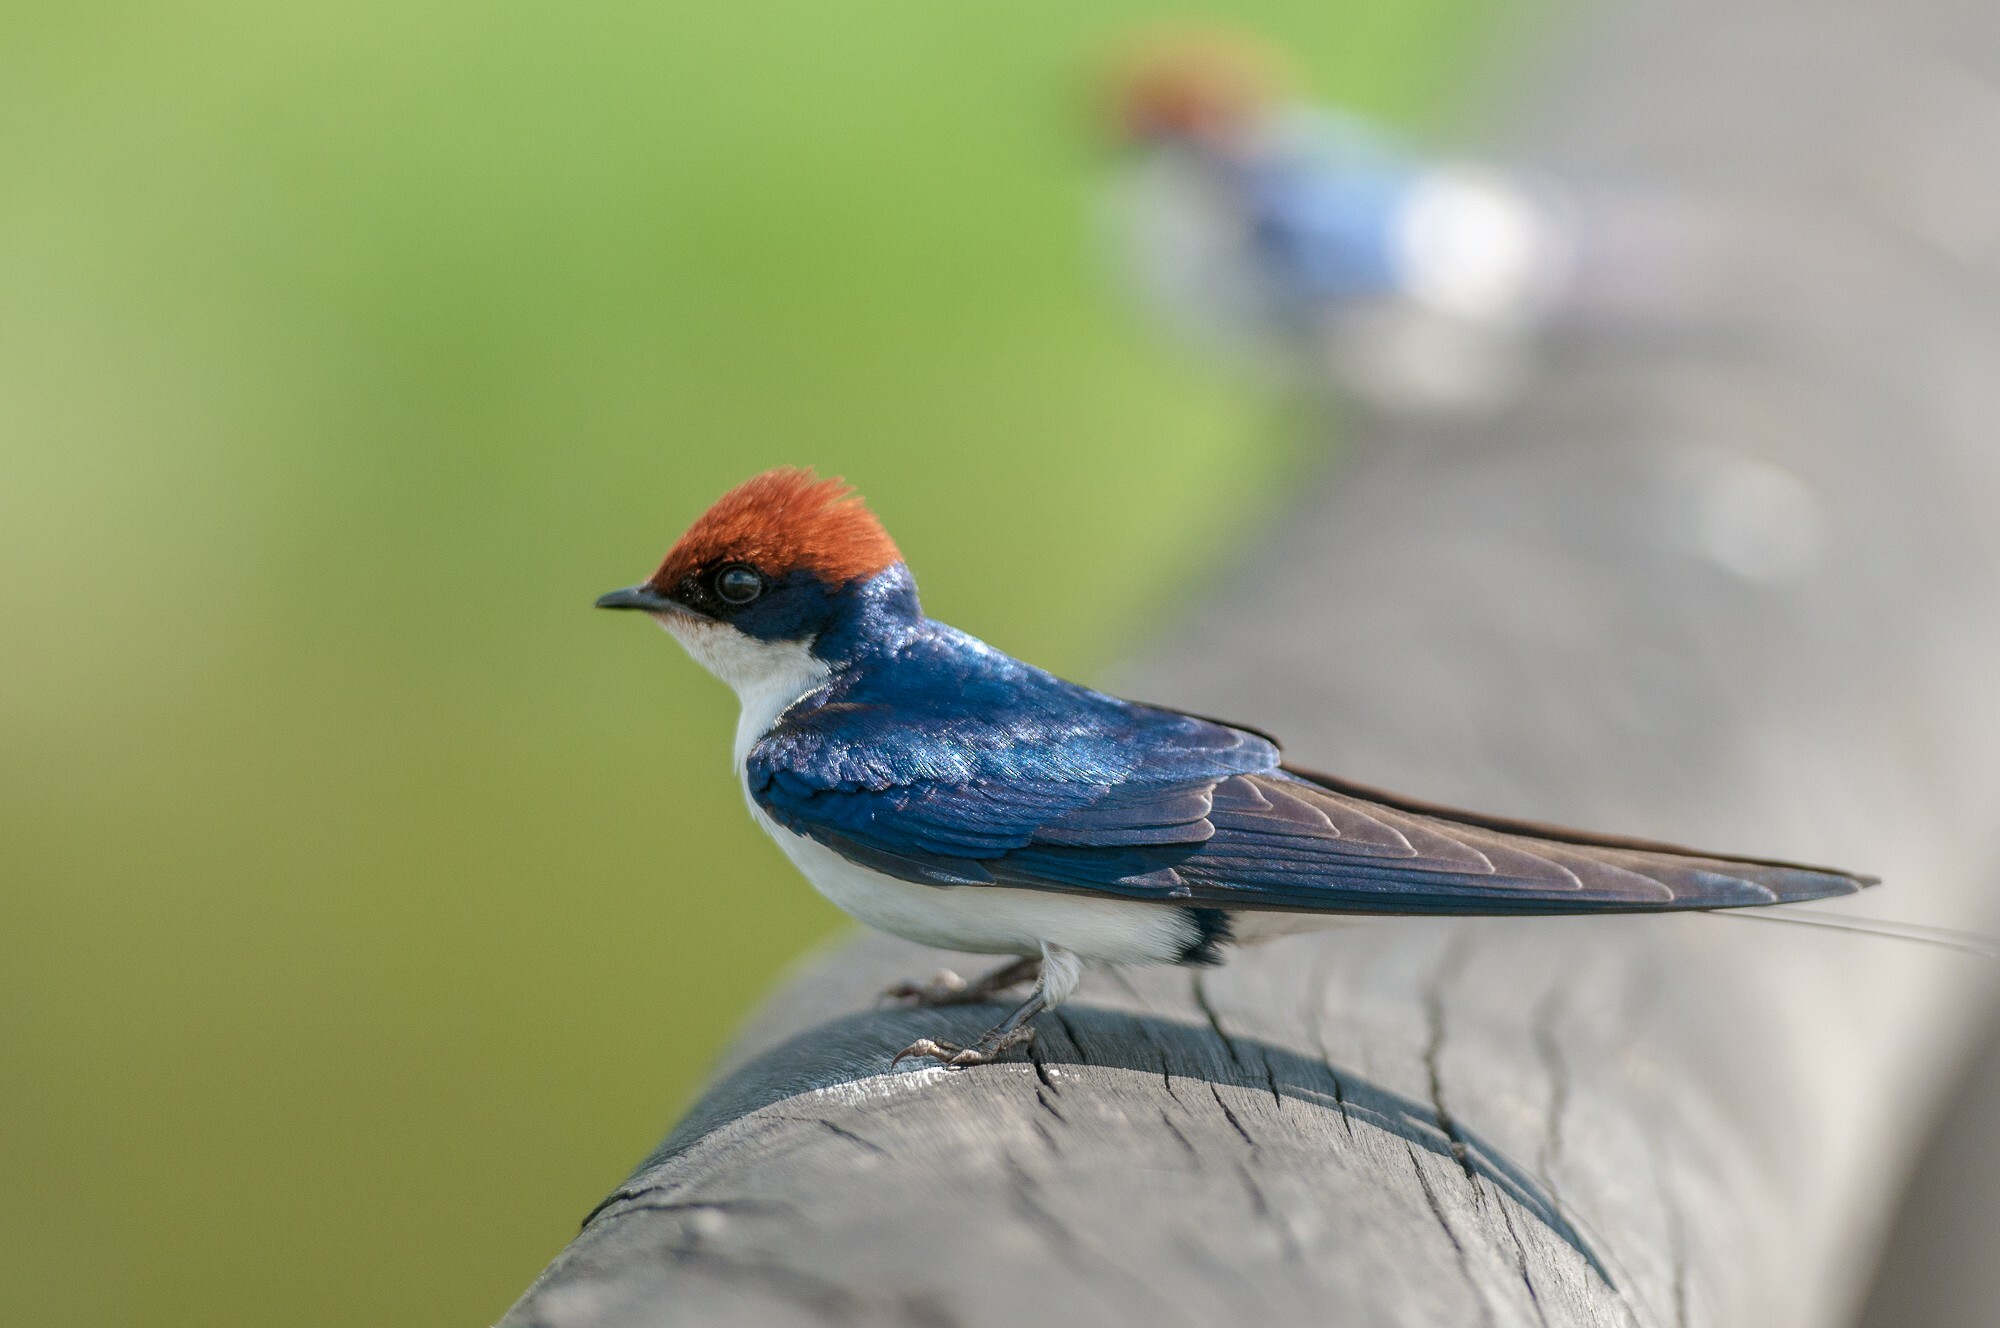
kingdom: Animalia
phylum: Chordata
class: Aves
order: Passeriformes
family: Hirundinidae
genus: Hirundo
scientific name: Hirundo smithii
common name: Wire-tailed swallow
